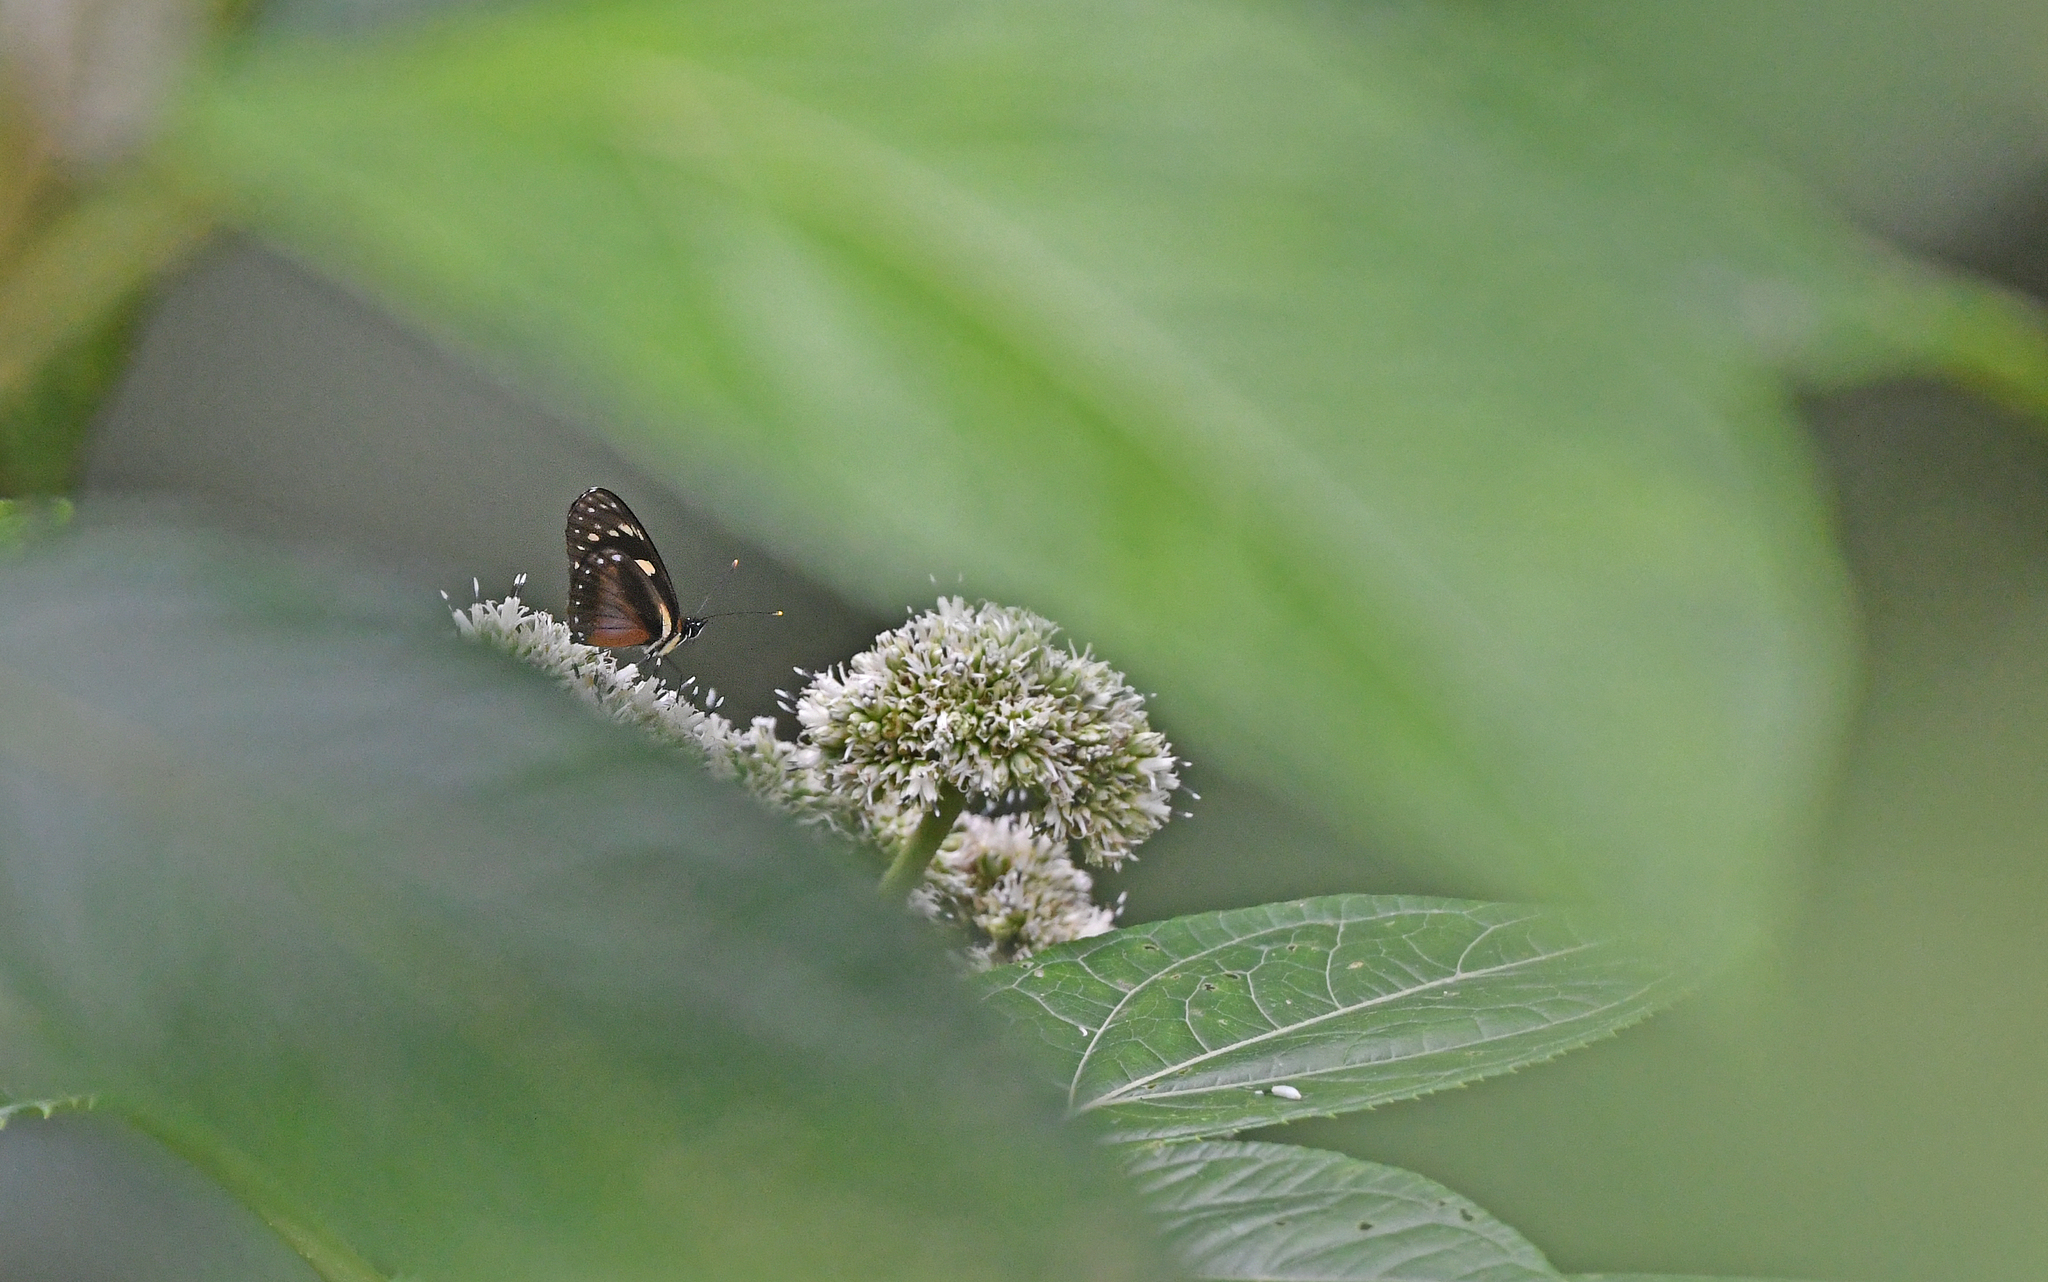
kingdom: Animalia
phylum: Arthropoda
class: Insecta
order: Lepidoptera
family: Nymphalidae
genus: Eresia
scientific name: Eresia datis
